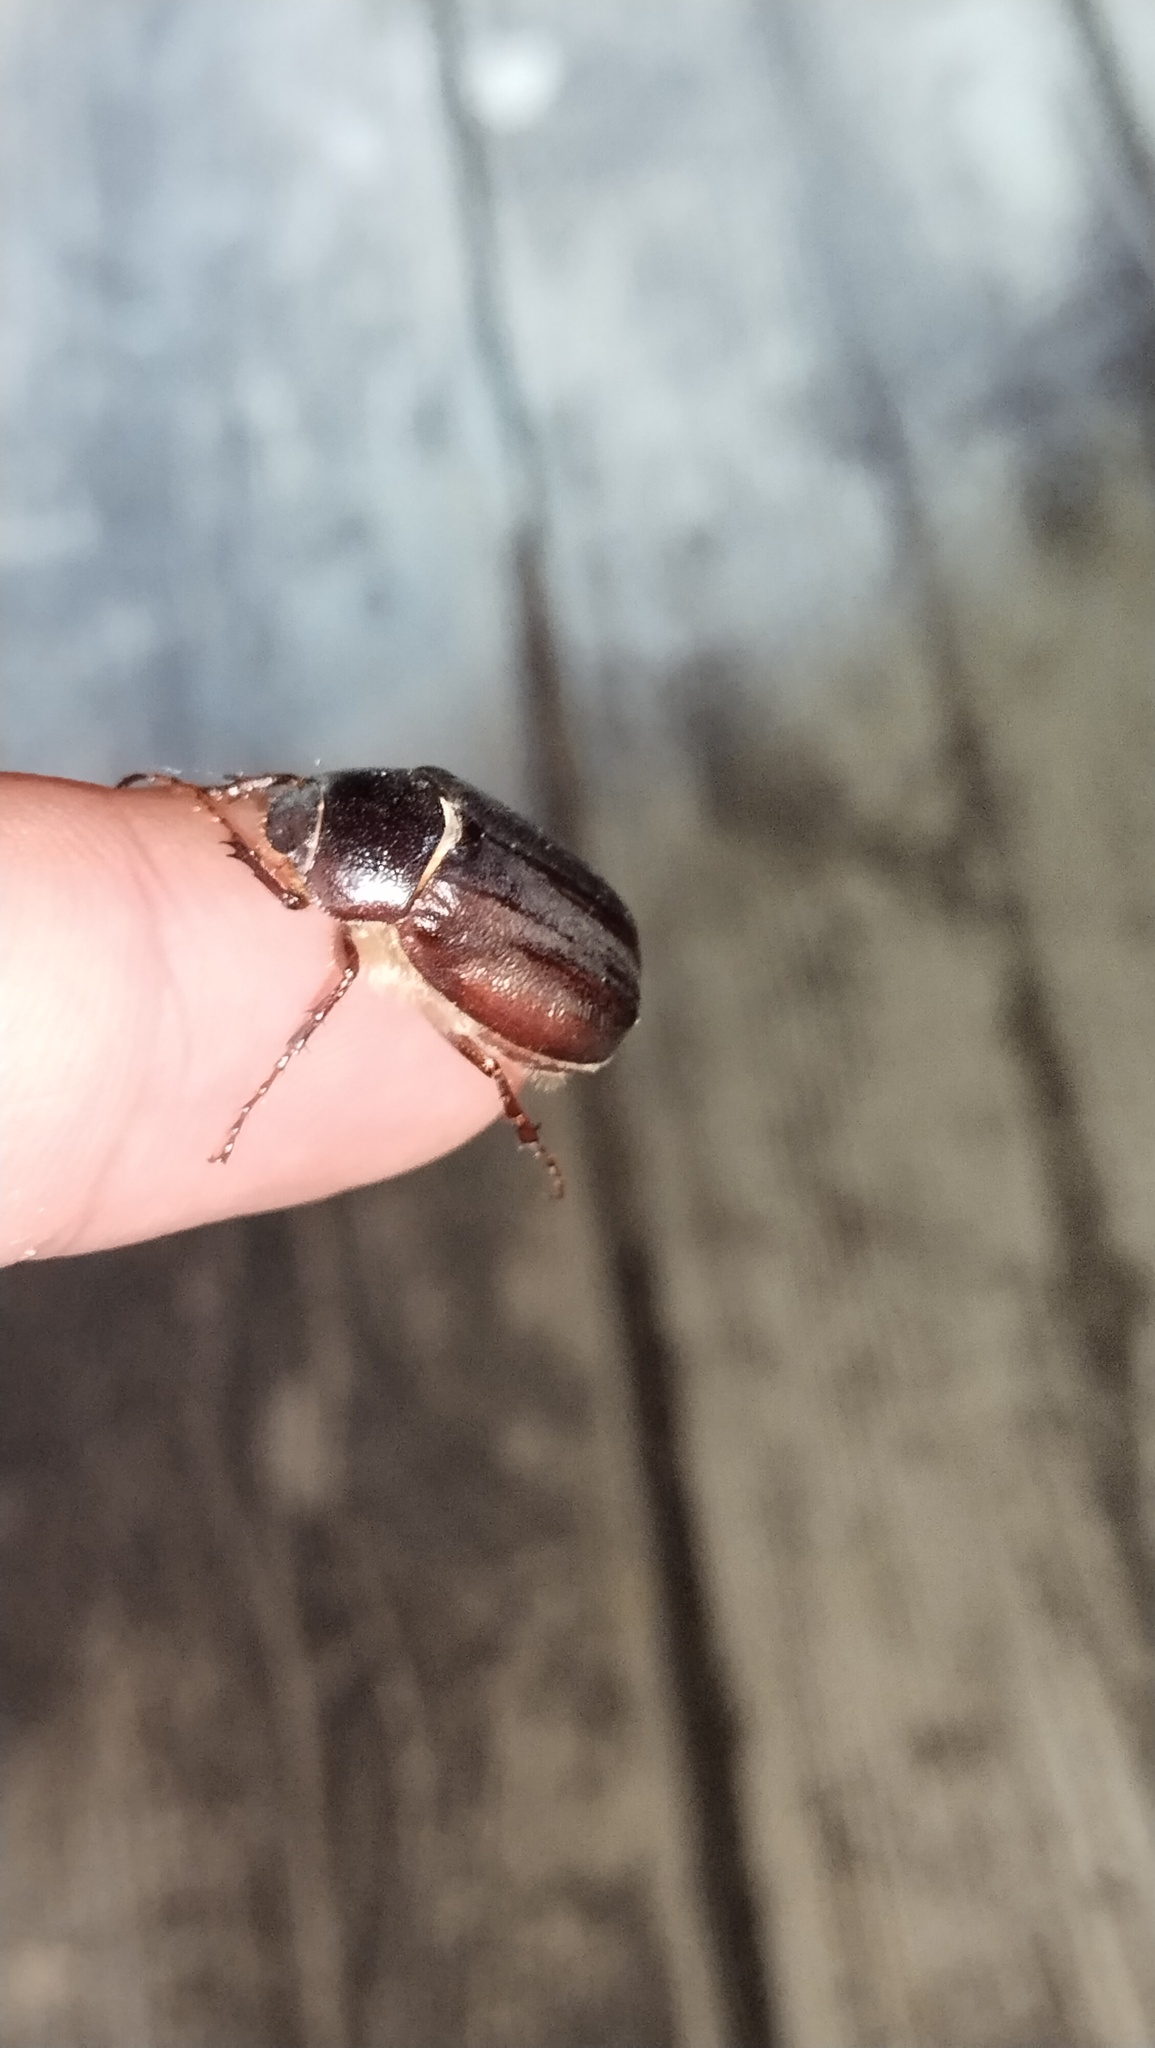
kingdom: Animalia
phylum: Arthropoda
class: Insecta
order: Coleoptera
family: Scarabaeidae
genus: Pedinotrichia
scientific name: Pedinotrichia parallela
